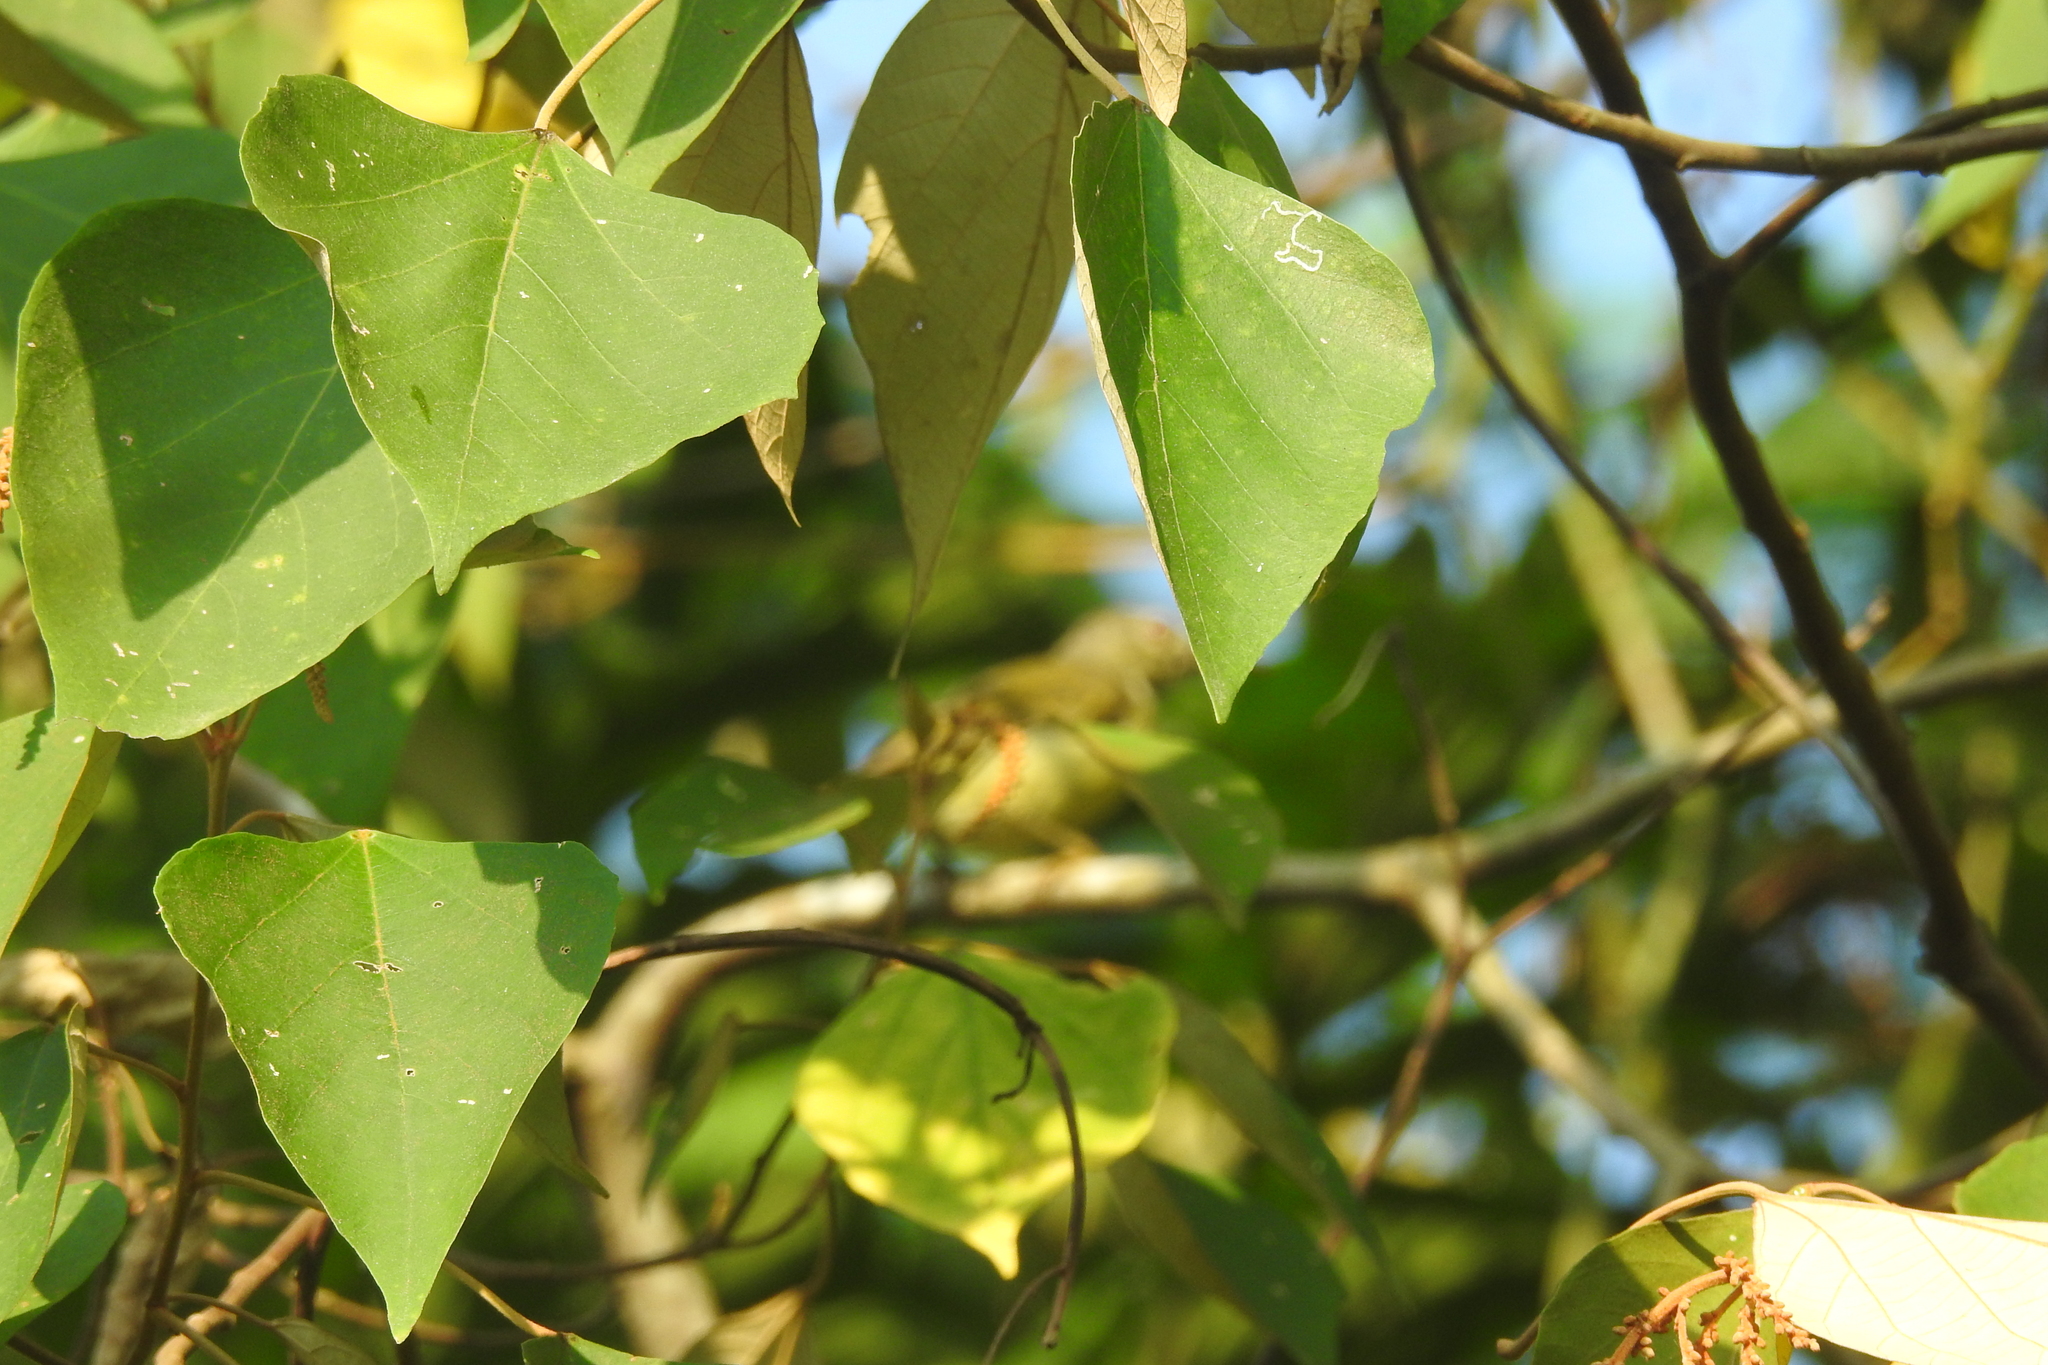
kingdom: Plantae
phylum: Tracheophyta
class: Magnoliopsida
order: Malpighiales
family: Euphorbiaceae
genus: Mallotus
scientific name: Mallotus paniculatus
